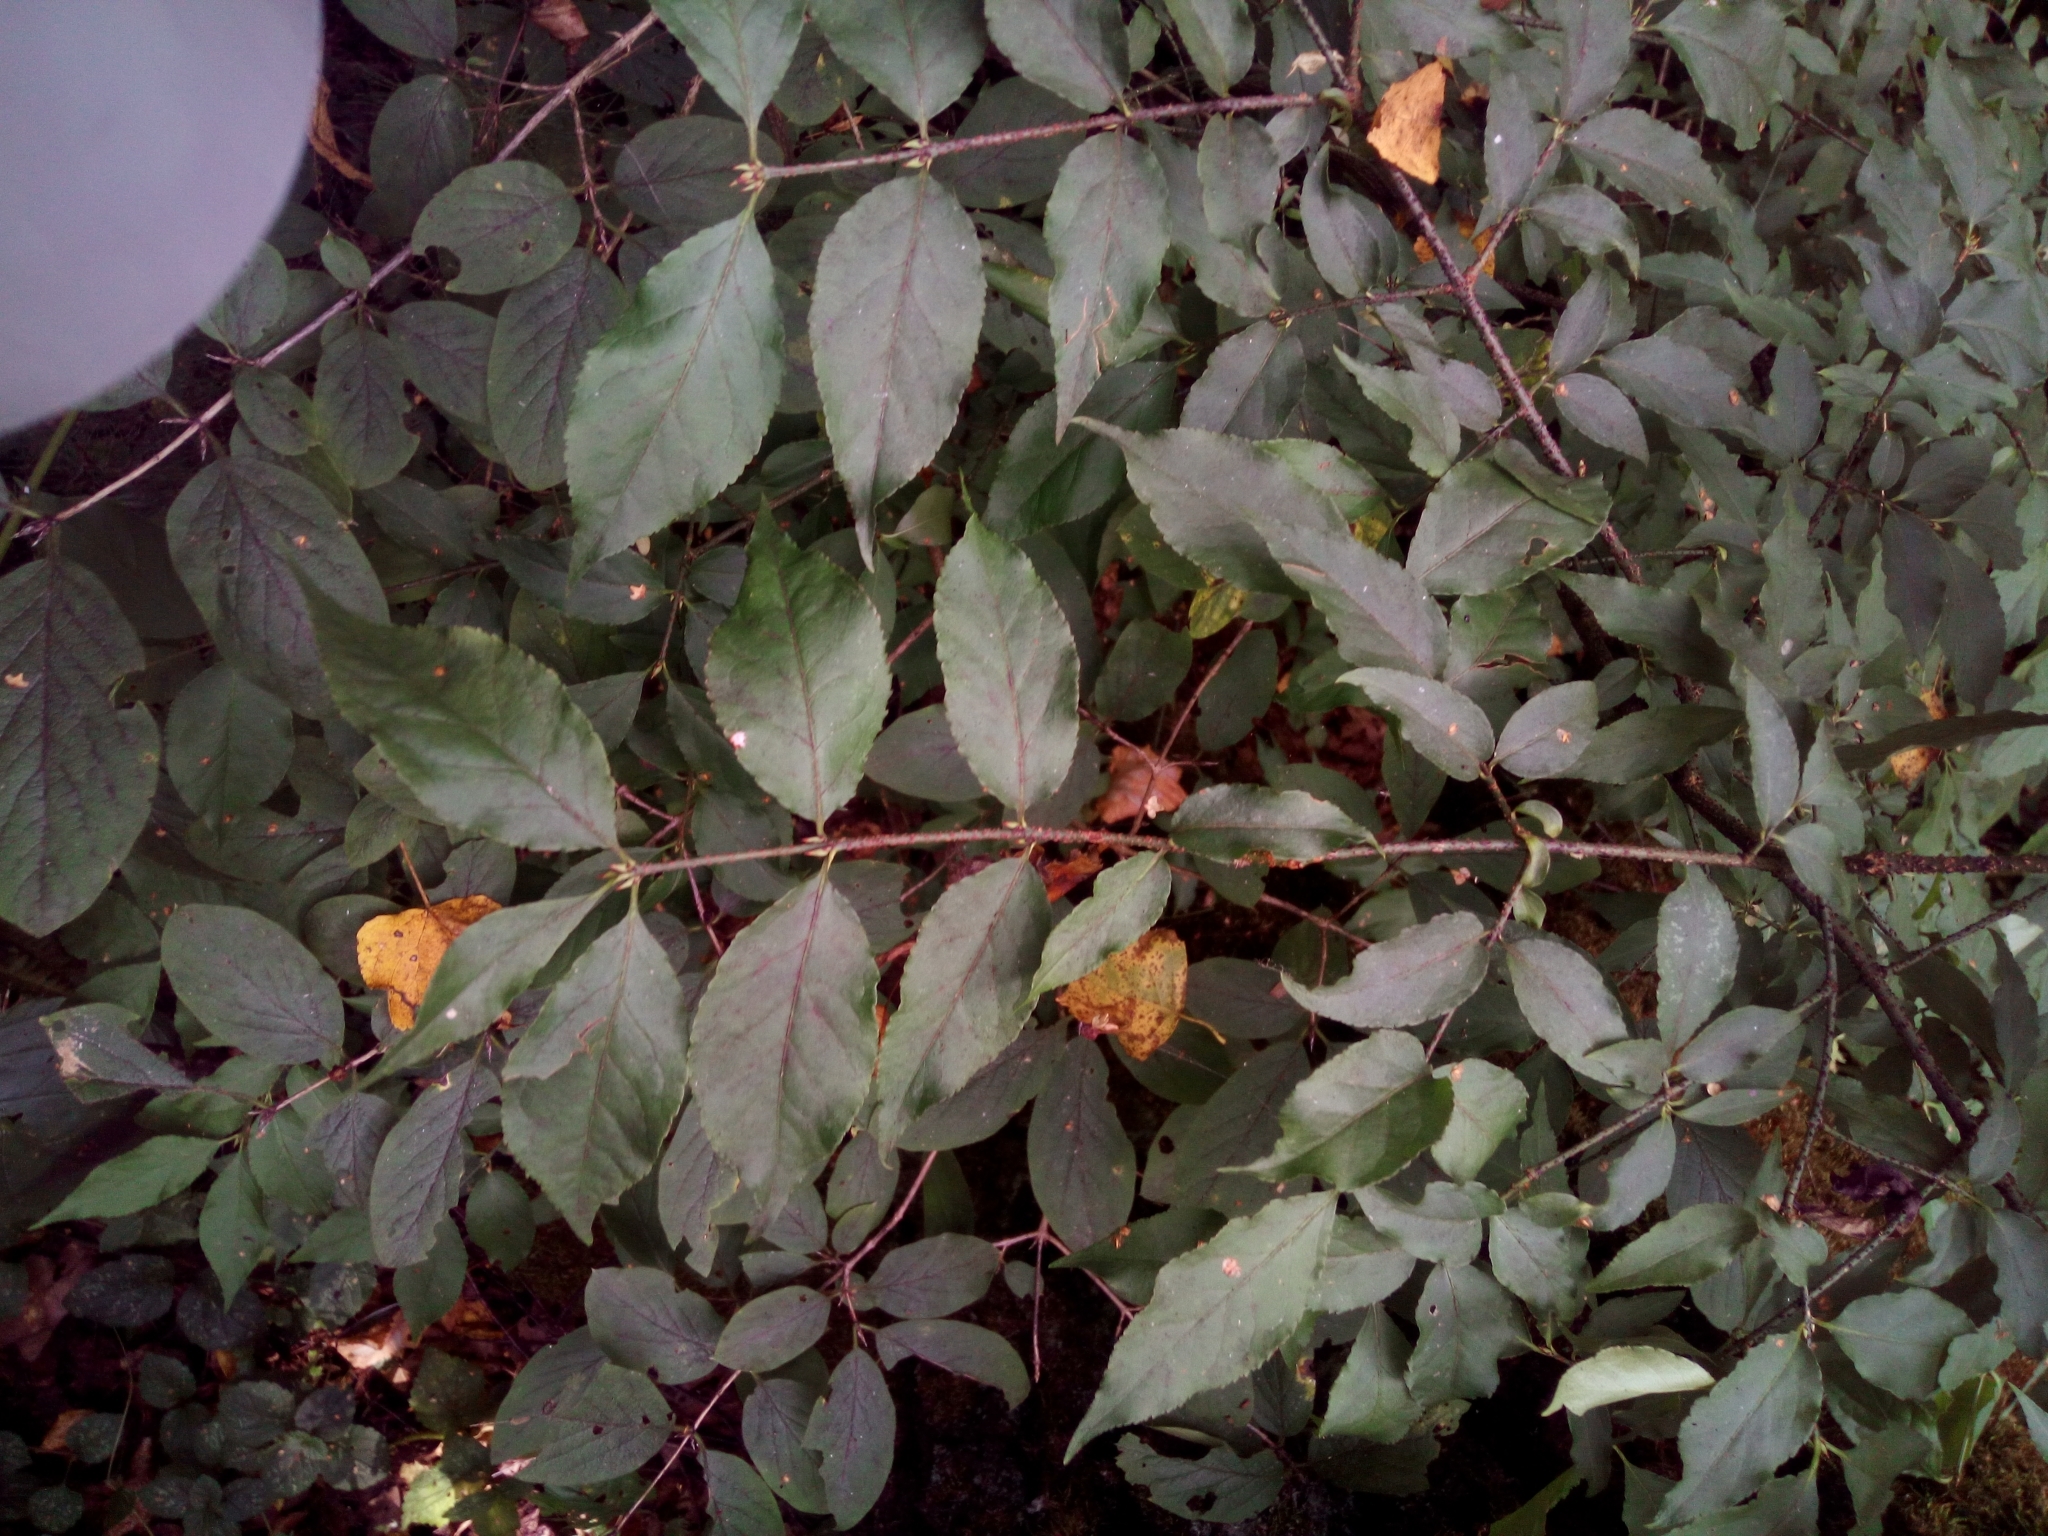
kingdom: Plantae
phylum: Tracheophyta
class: Magnoliopsida
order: Celastrales
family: Celastraceae
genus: Euonymus
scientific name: Euonymus verrucosus
